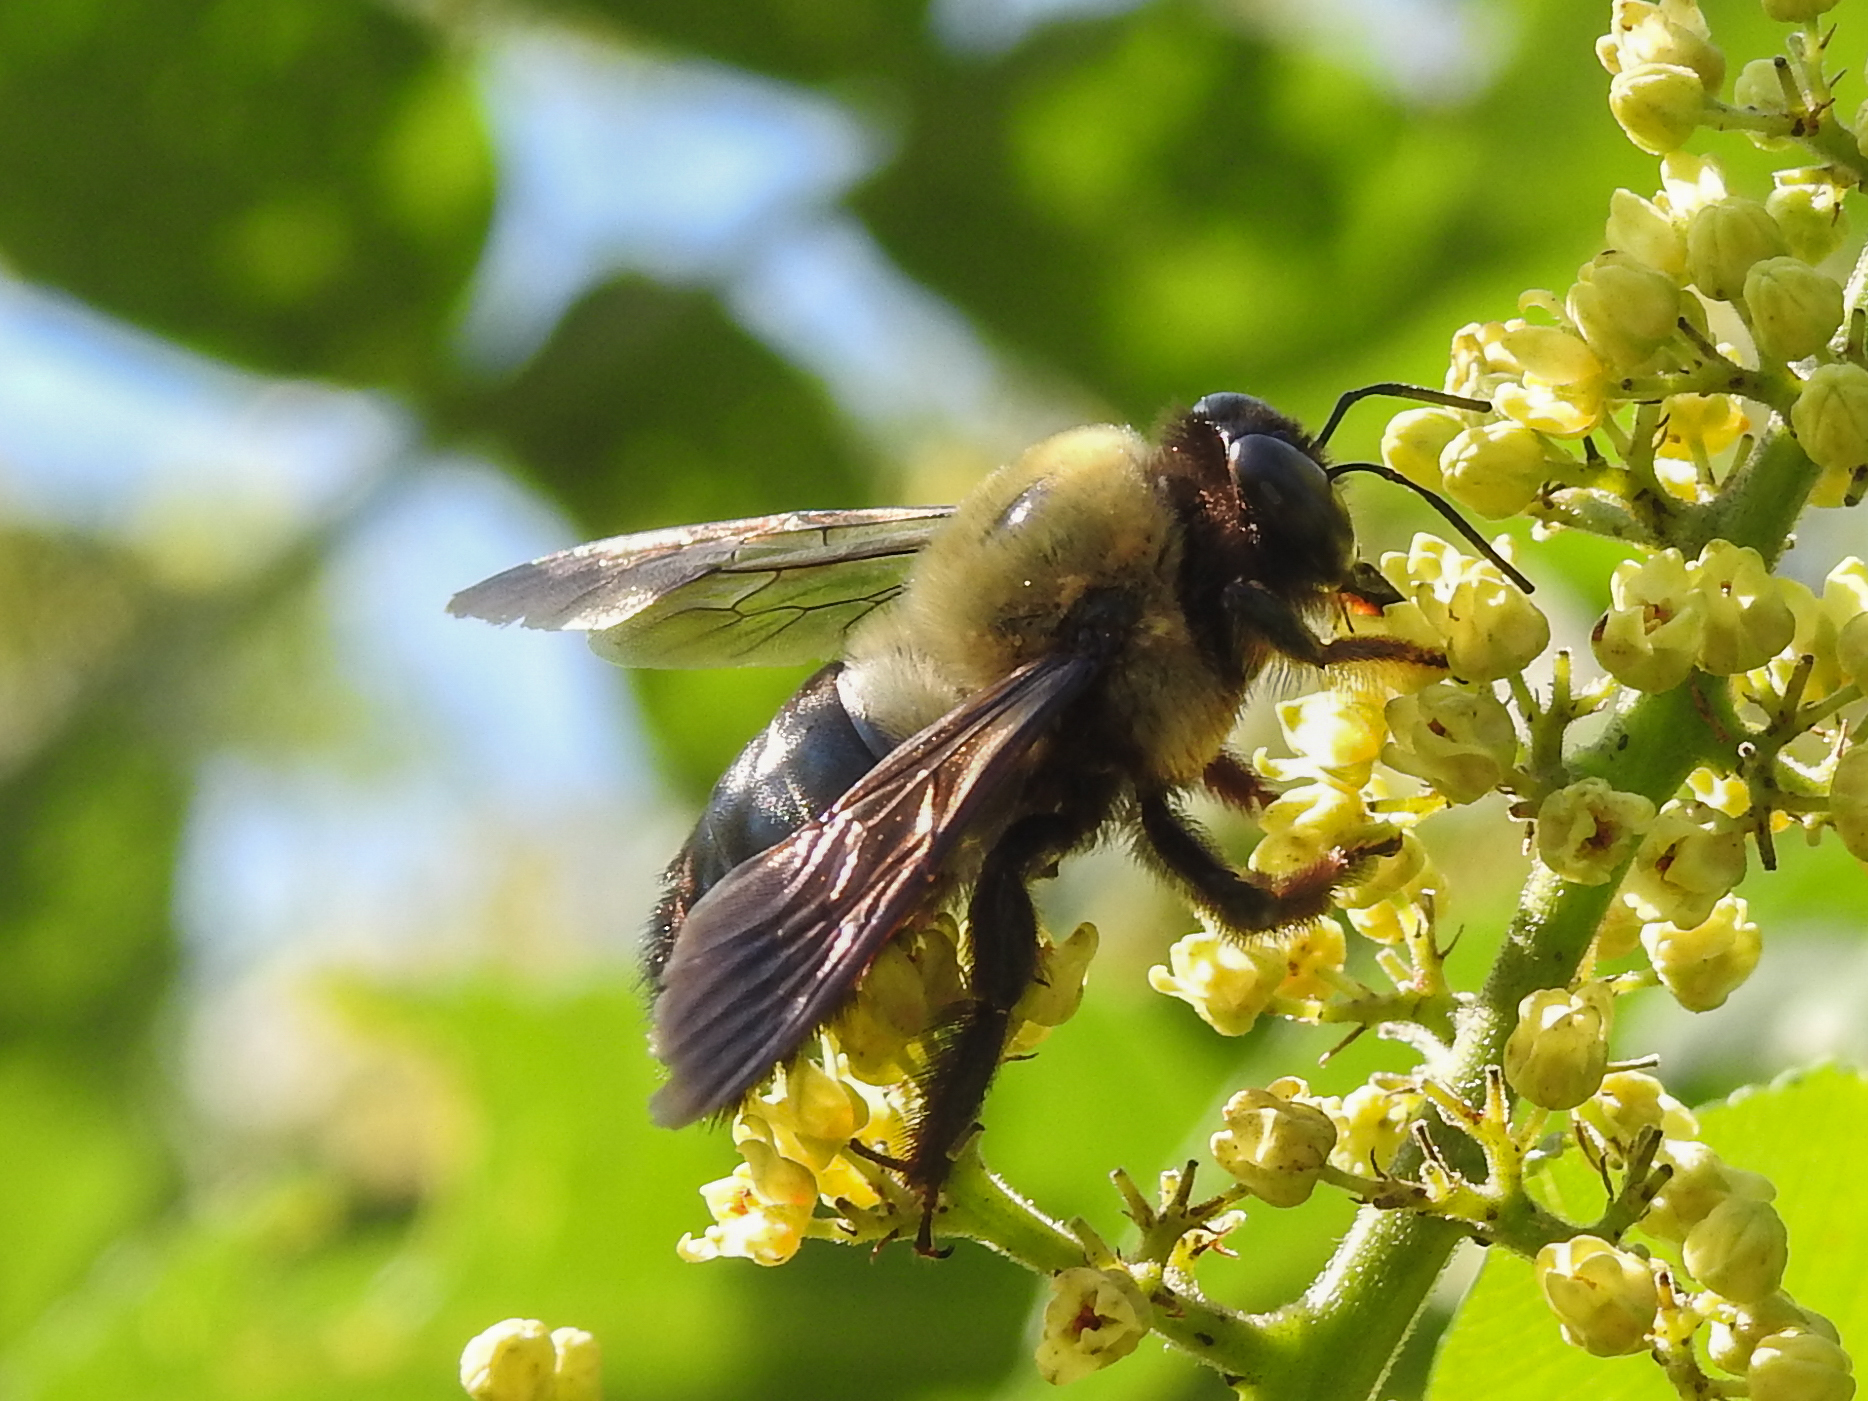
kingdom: Animalia
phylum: Arthropoda
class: Insecta
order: Hymenoptera
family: Apidae
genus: Xylocopa
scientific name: Xylocopa virginica
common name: Carpenter bee
